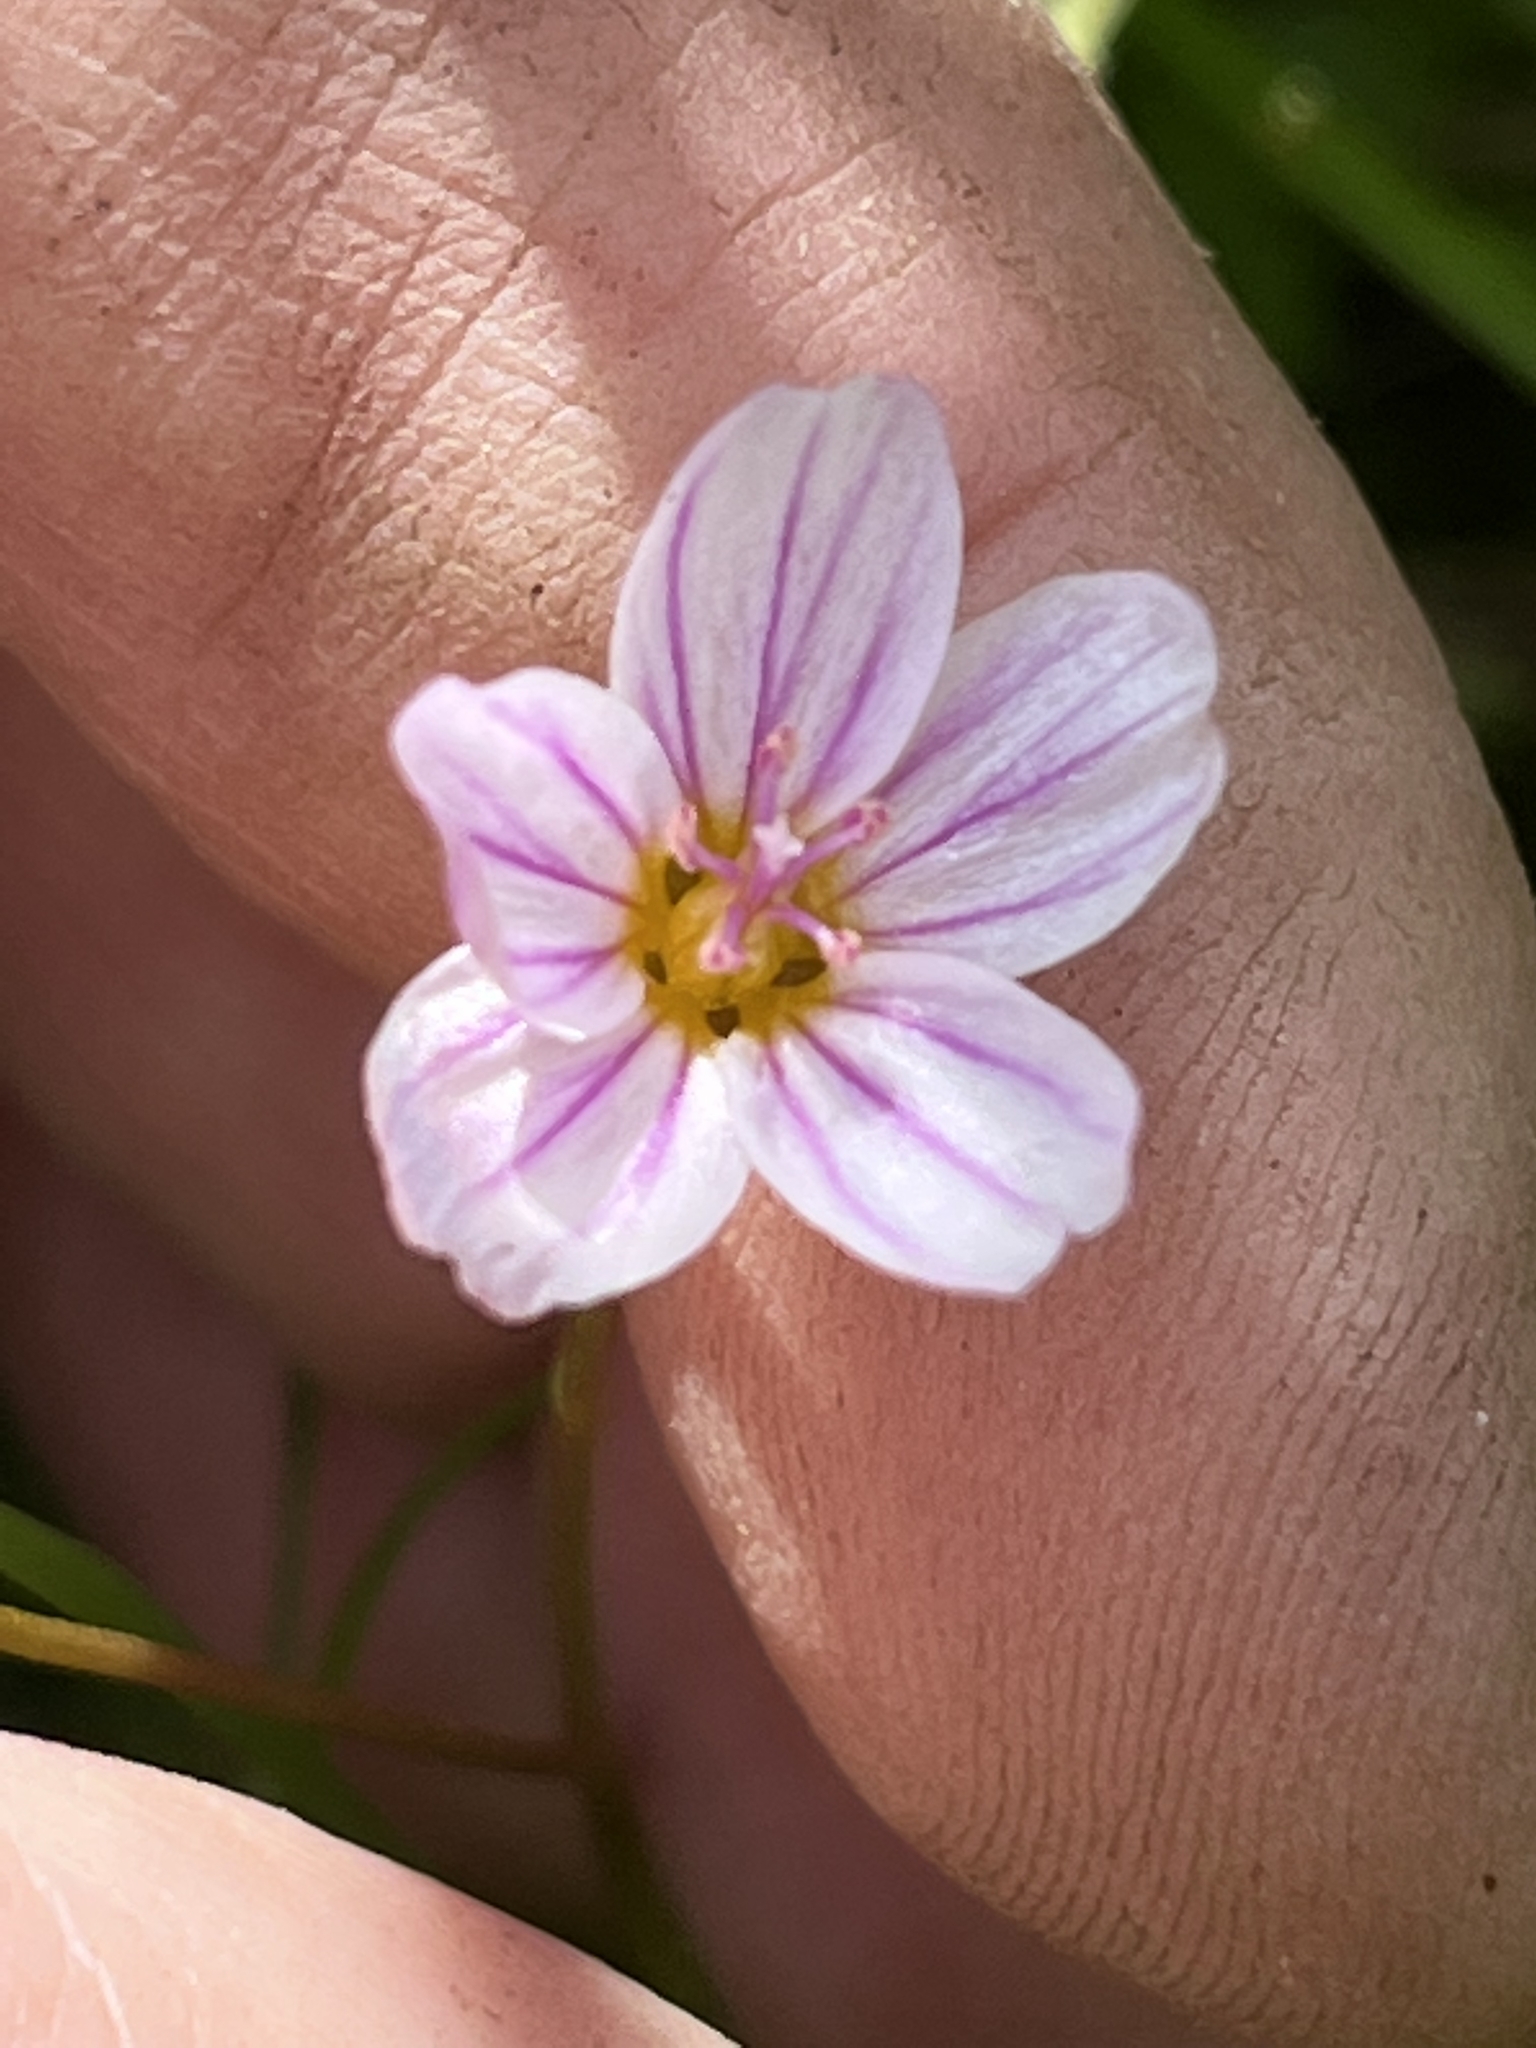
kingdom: Plantae
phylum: Tracheophyta
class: Magnoliopsida
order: Caryophyllales
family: Montiaceae
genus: Claytonia
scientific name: Claytonia sarmentosa
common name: Alaska spring beauty
